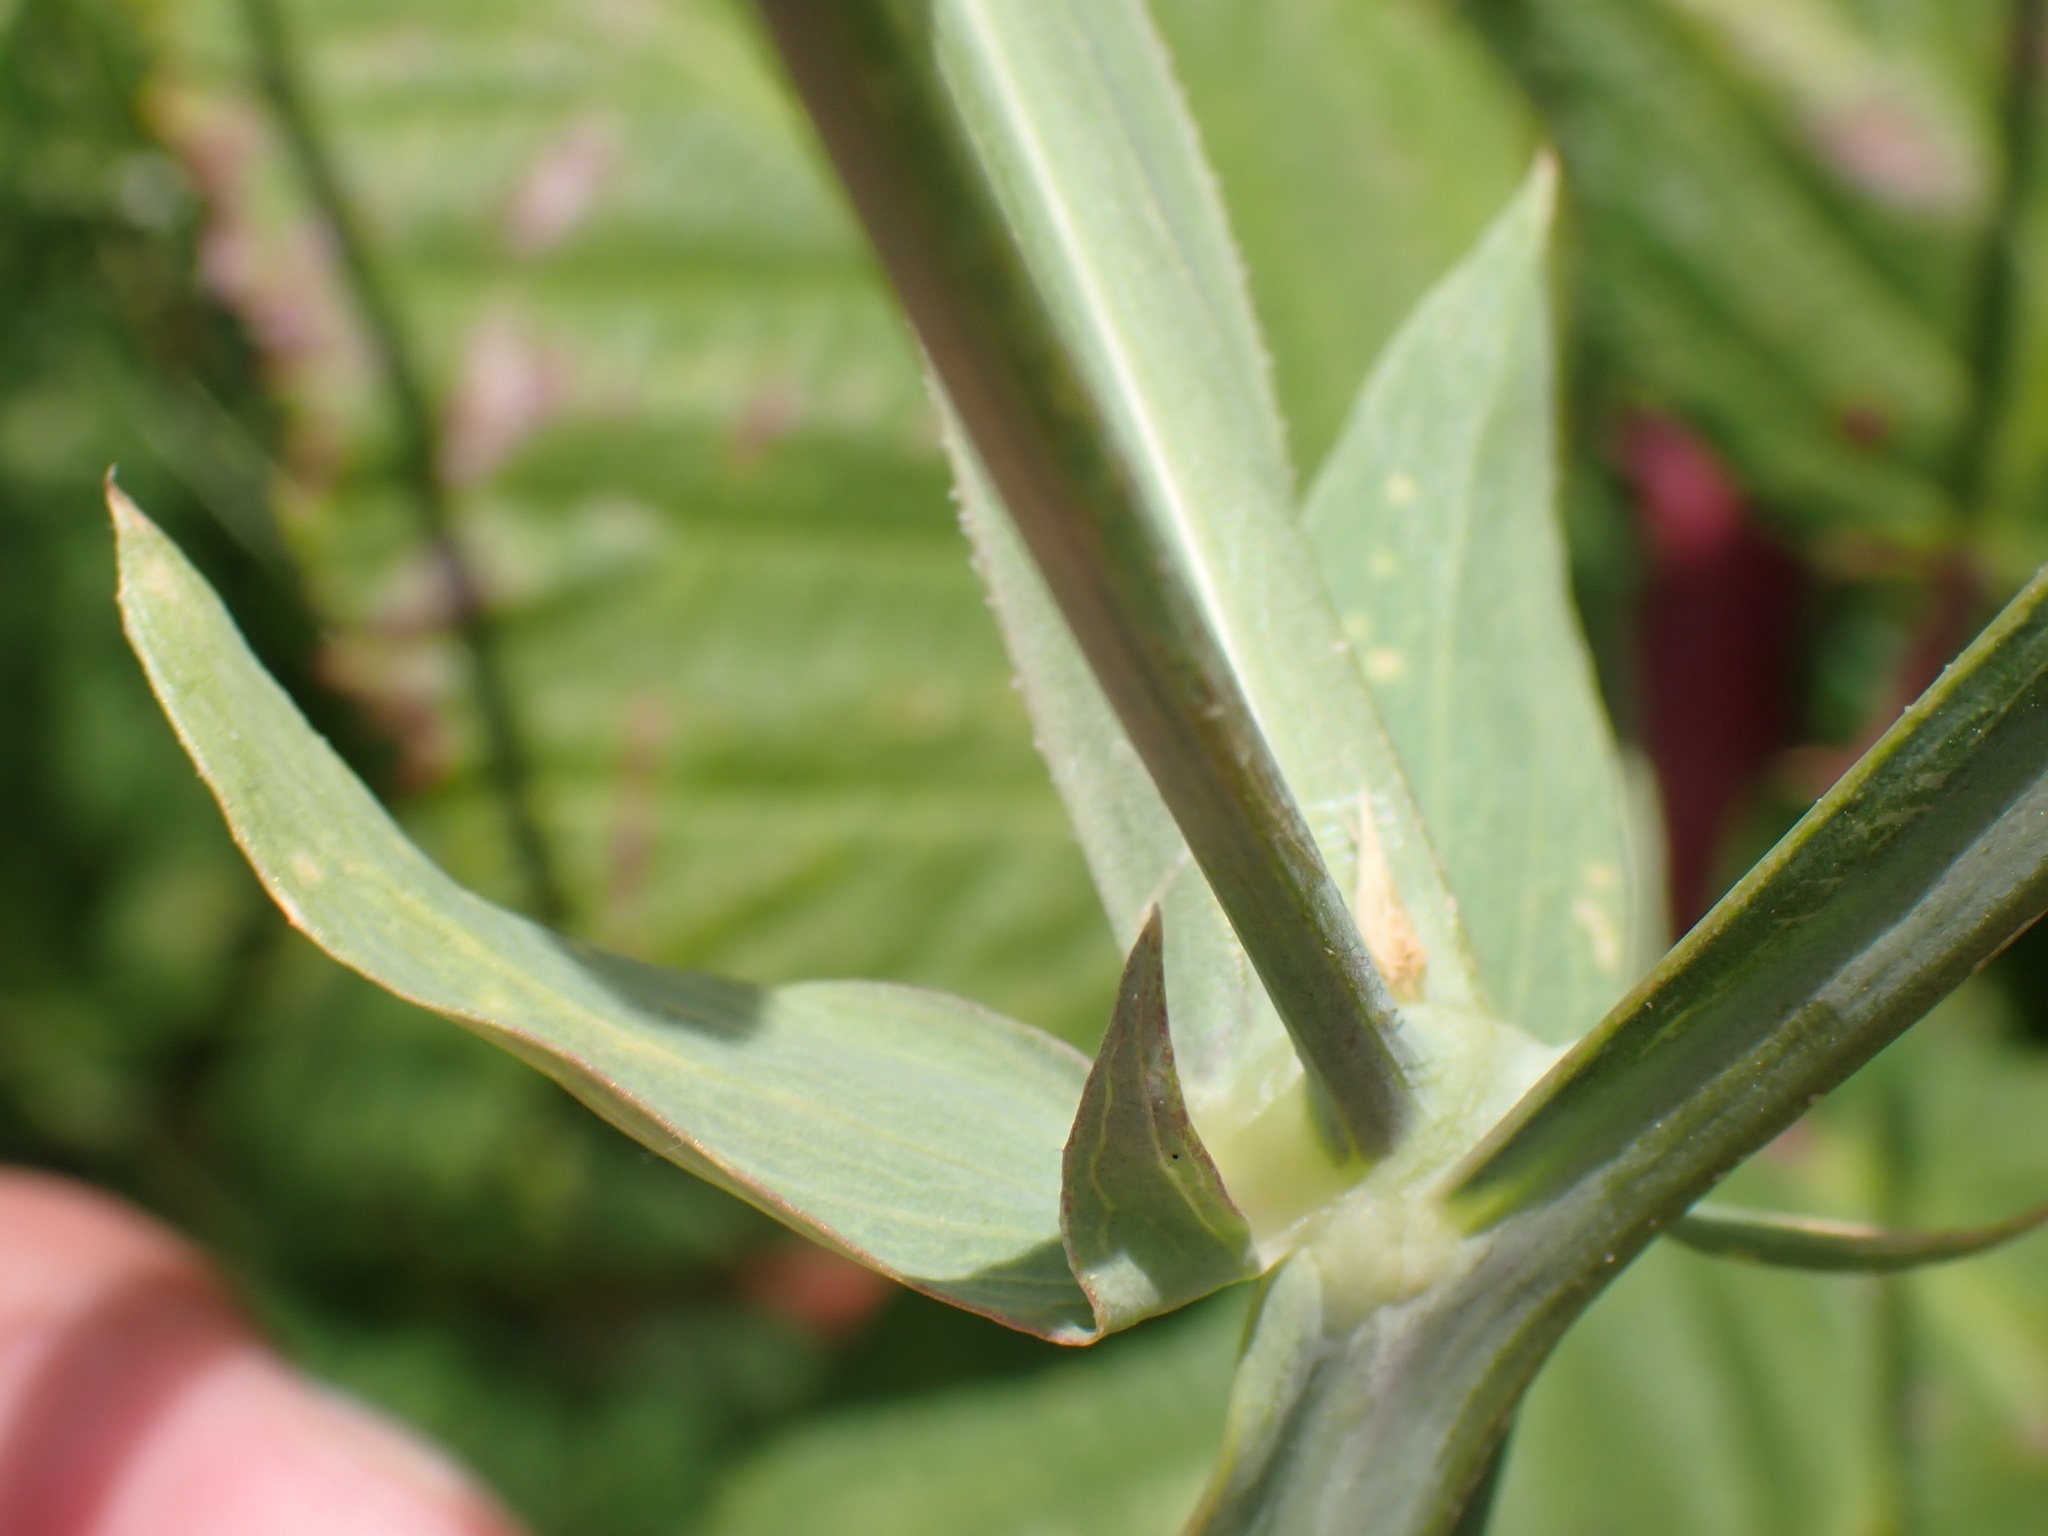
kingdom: Plantae
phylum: Tracheophyta
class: Magnoliopsida
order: Fabales
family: Fabaceae
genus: Lathyrus
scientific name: Lathyrus latifolius
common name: Perennial pea
